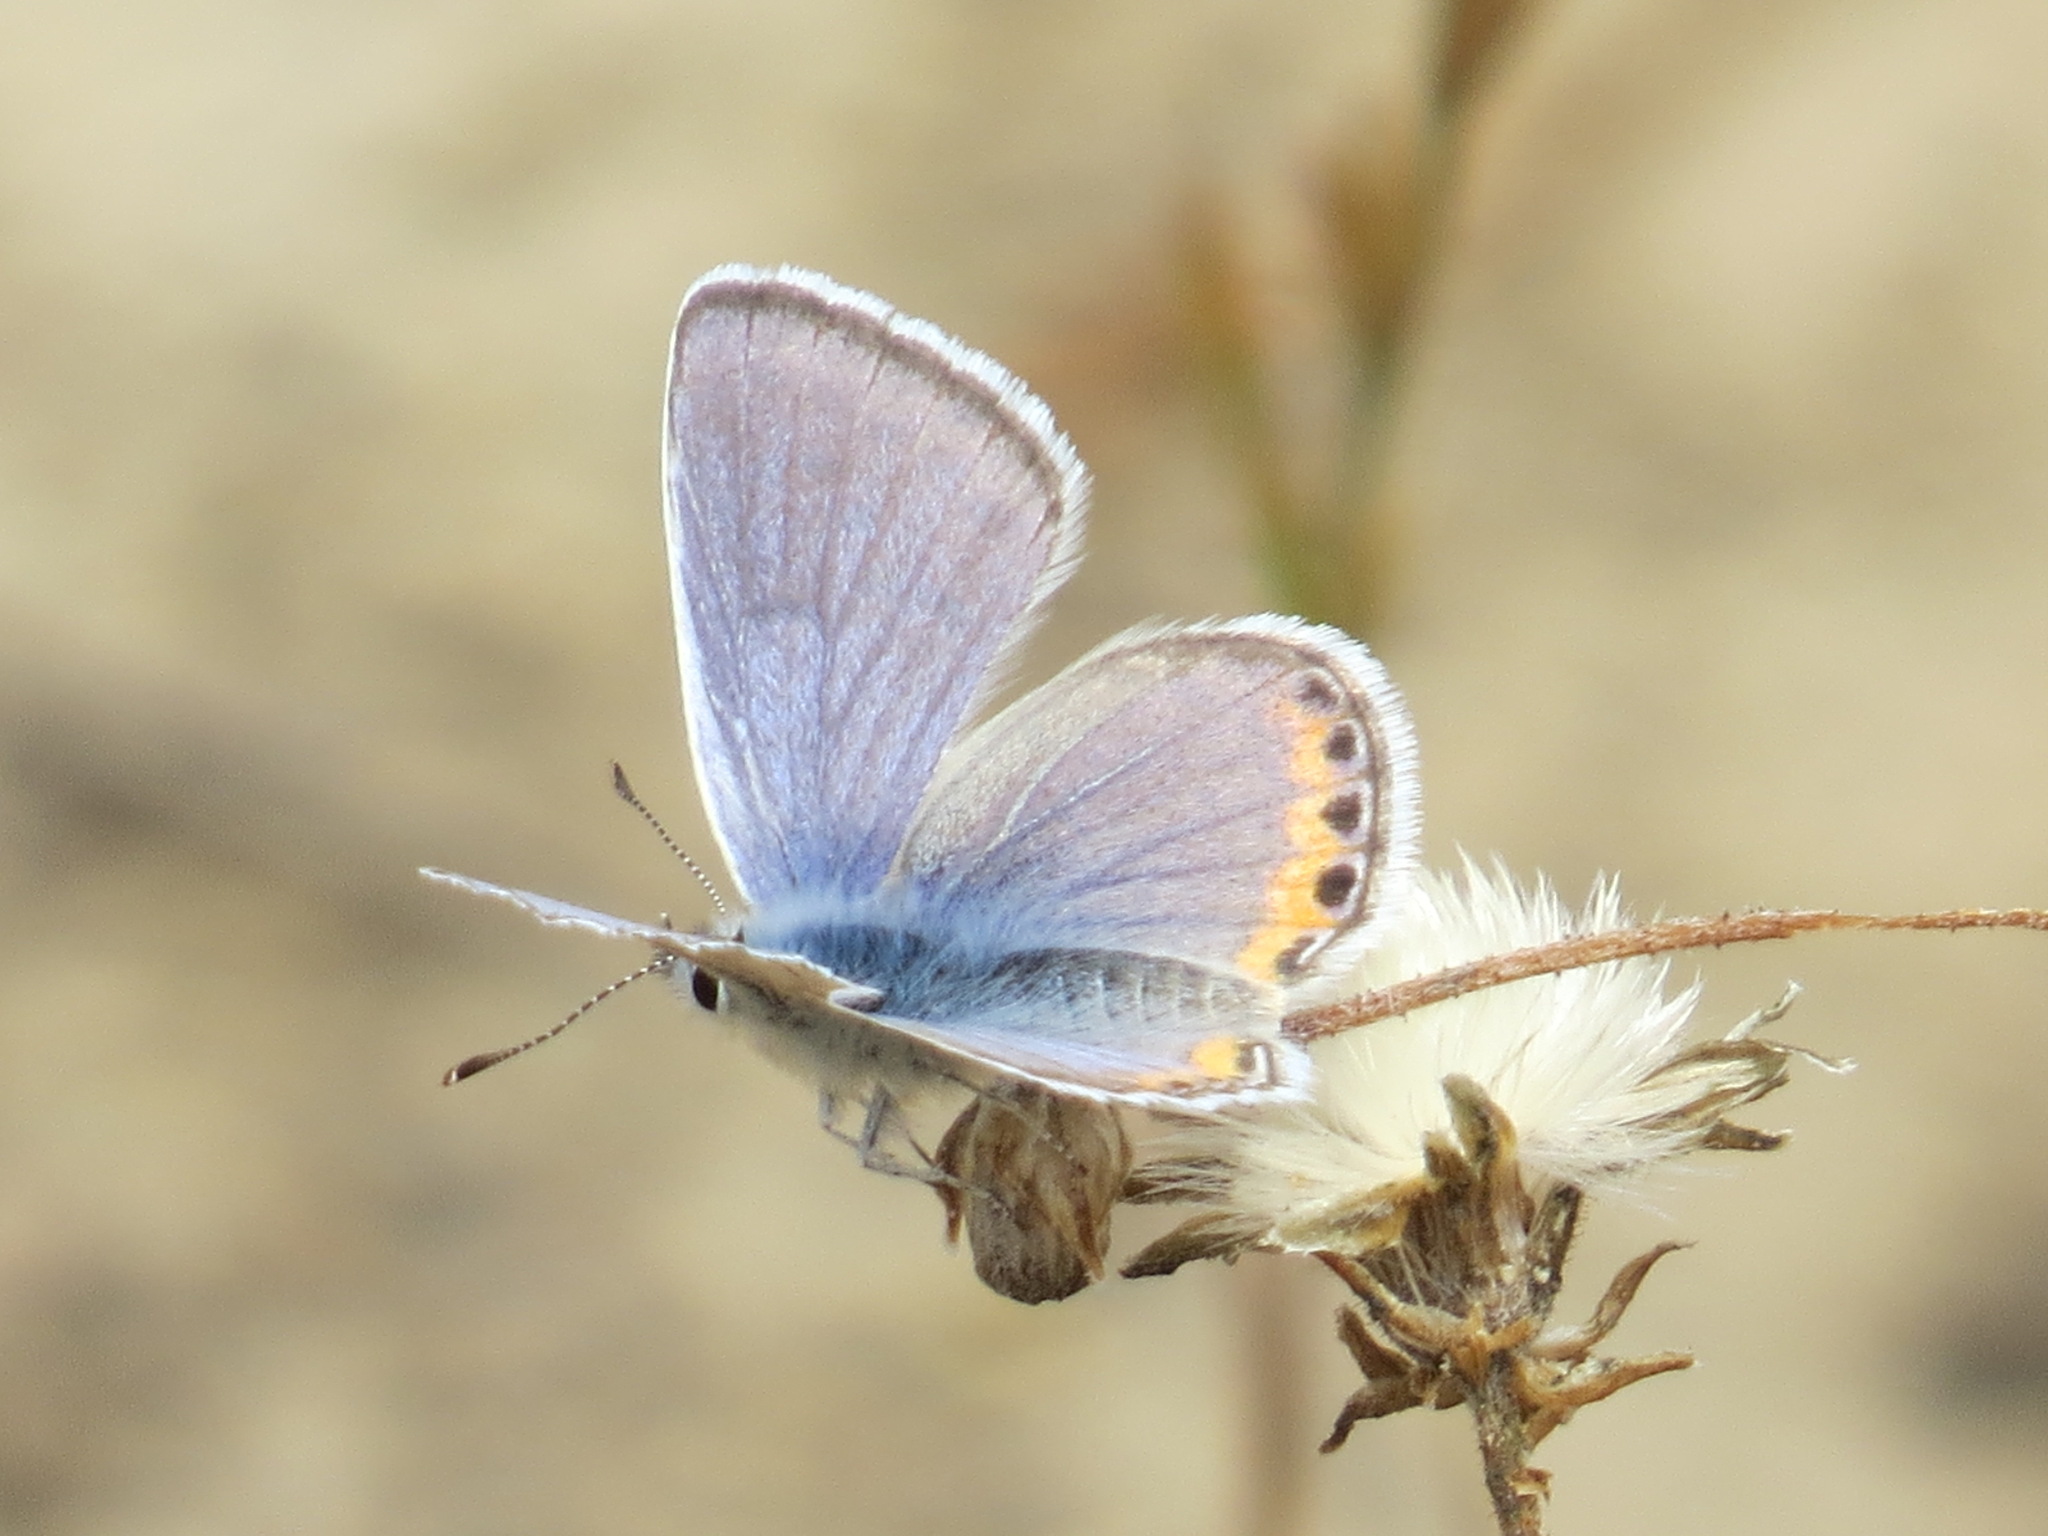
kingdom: Animalia
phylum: Arthropoda
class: Insecta
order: Lepidoptera
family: Lycaenidae
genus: Icaricia
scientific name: Icaricia acmon
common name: Acmon blue
